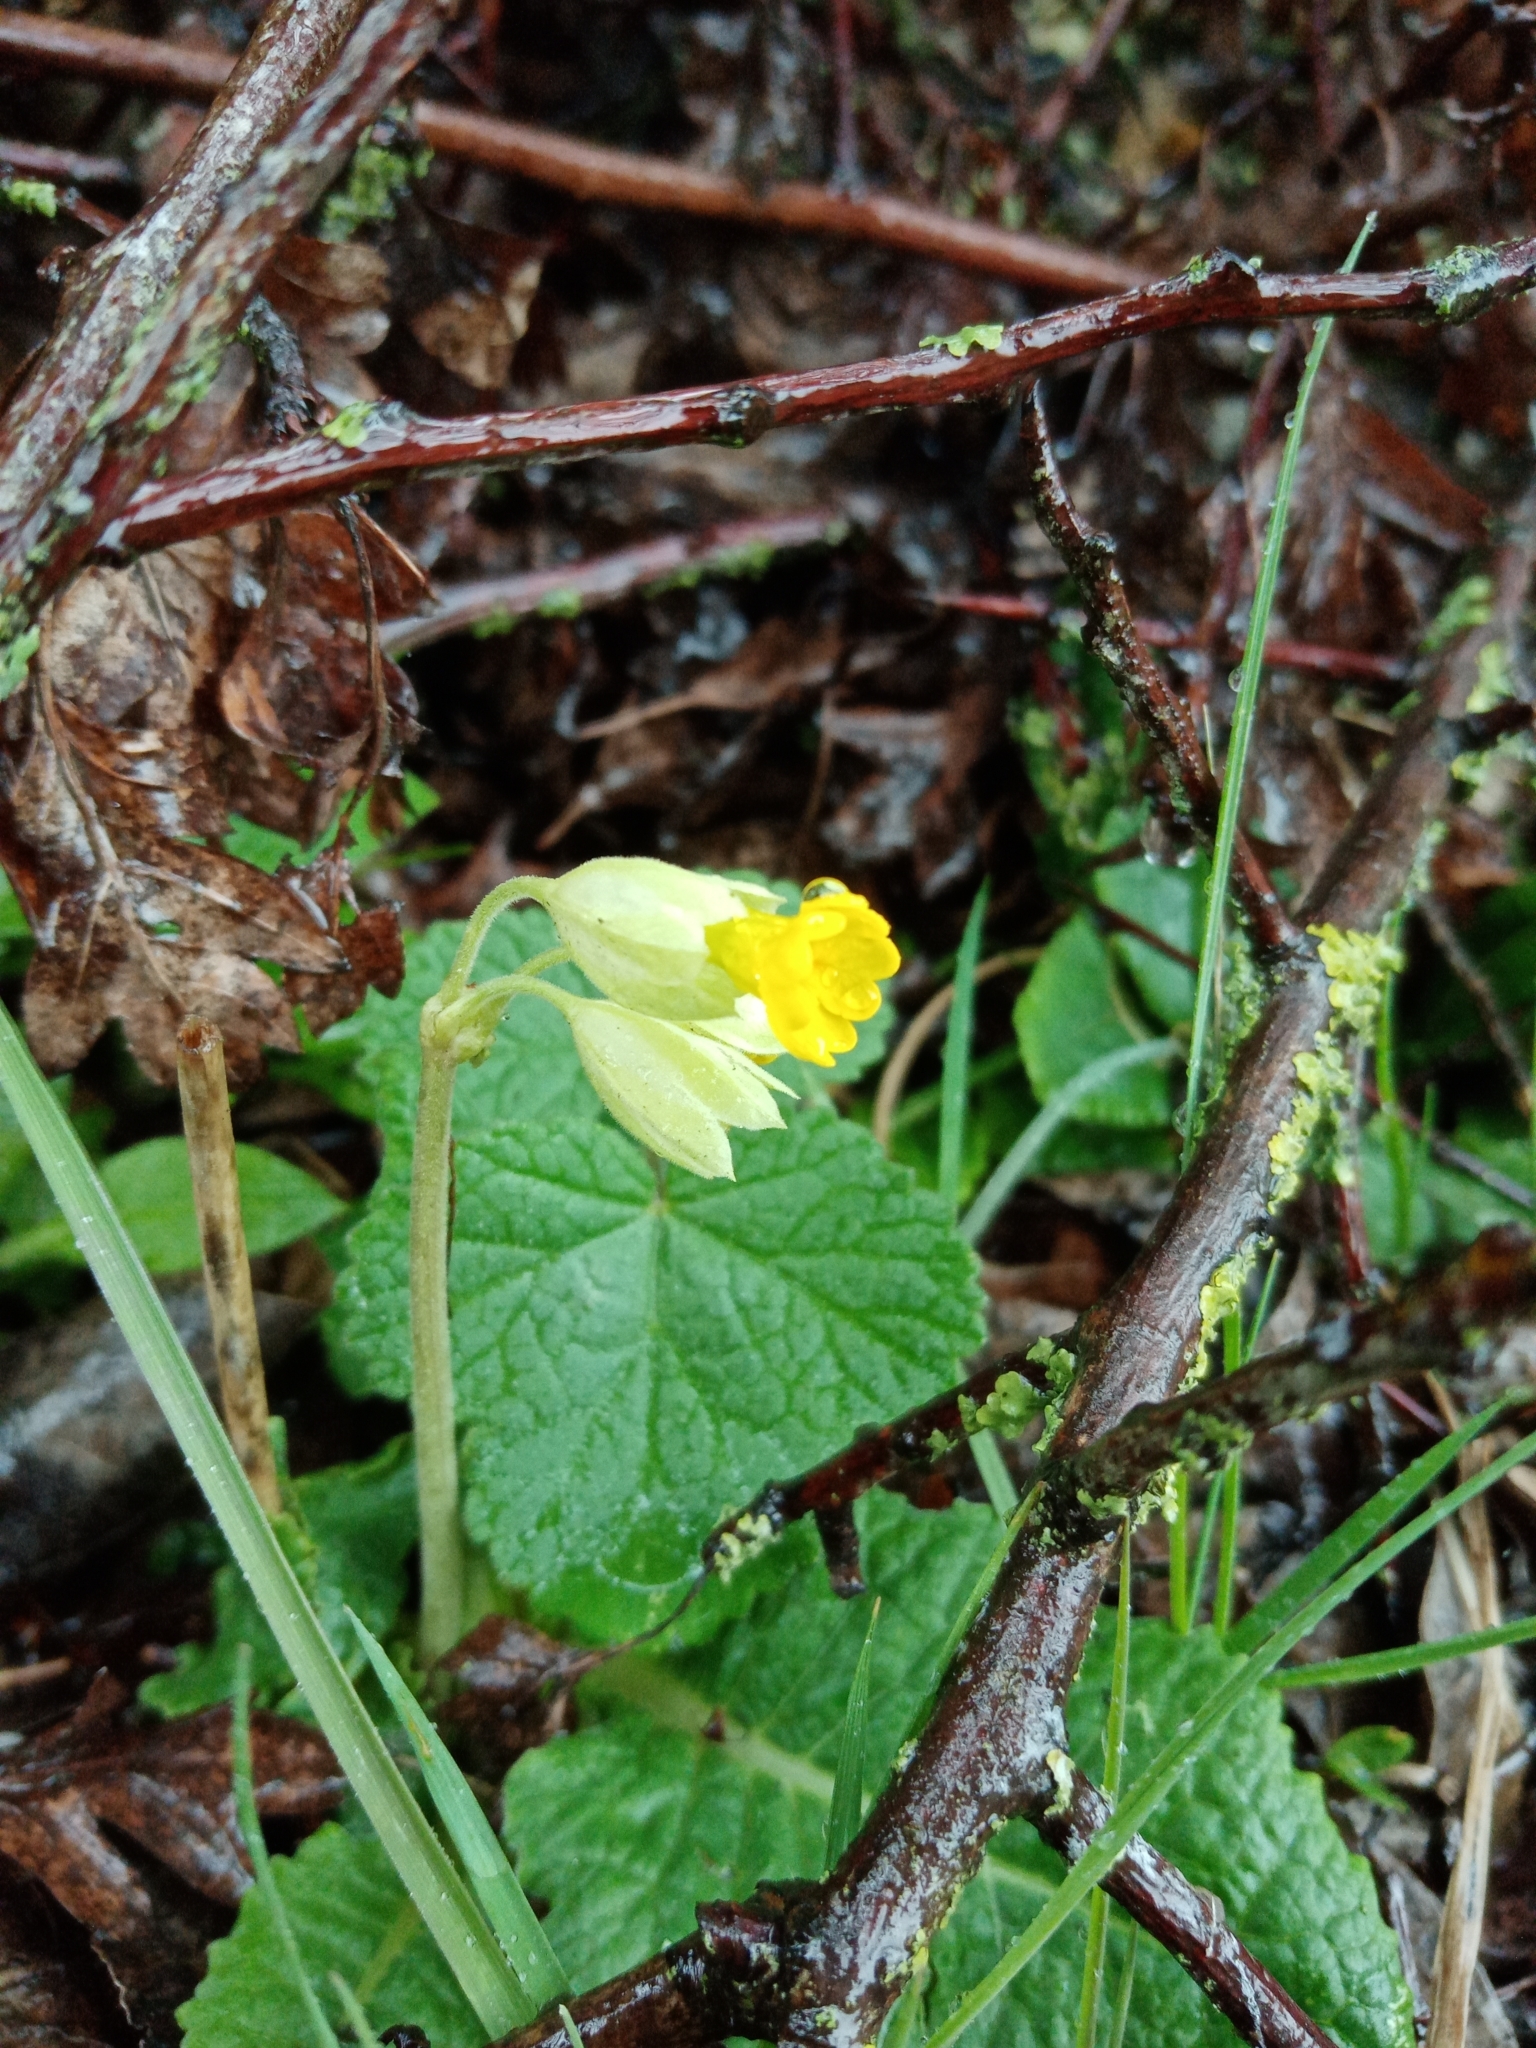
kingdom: Plantae
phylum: Tracheophyta
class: Magnoliopsida
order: Ericales
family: Primulaceae
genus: Primula
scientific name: Primula veris
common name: Cowslip
